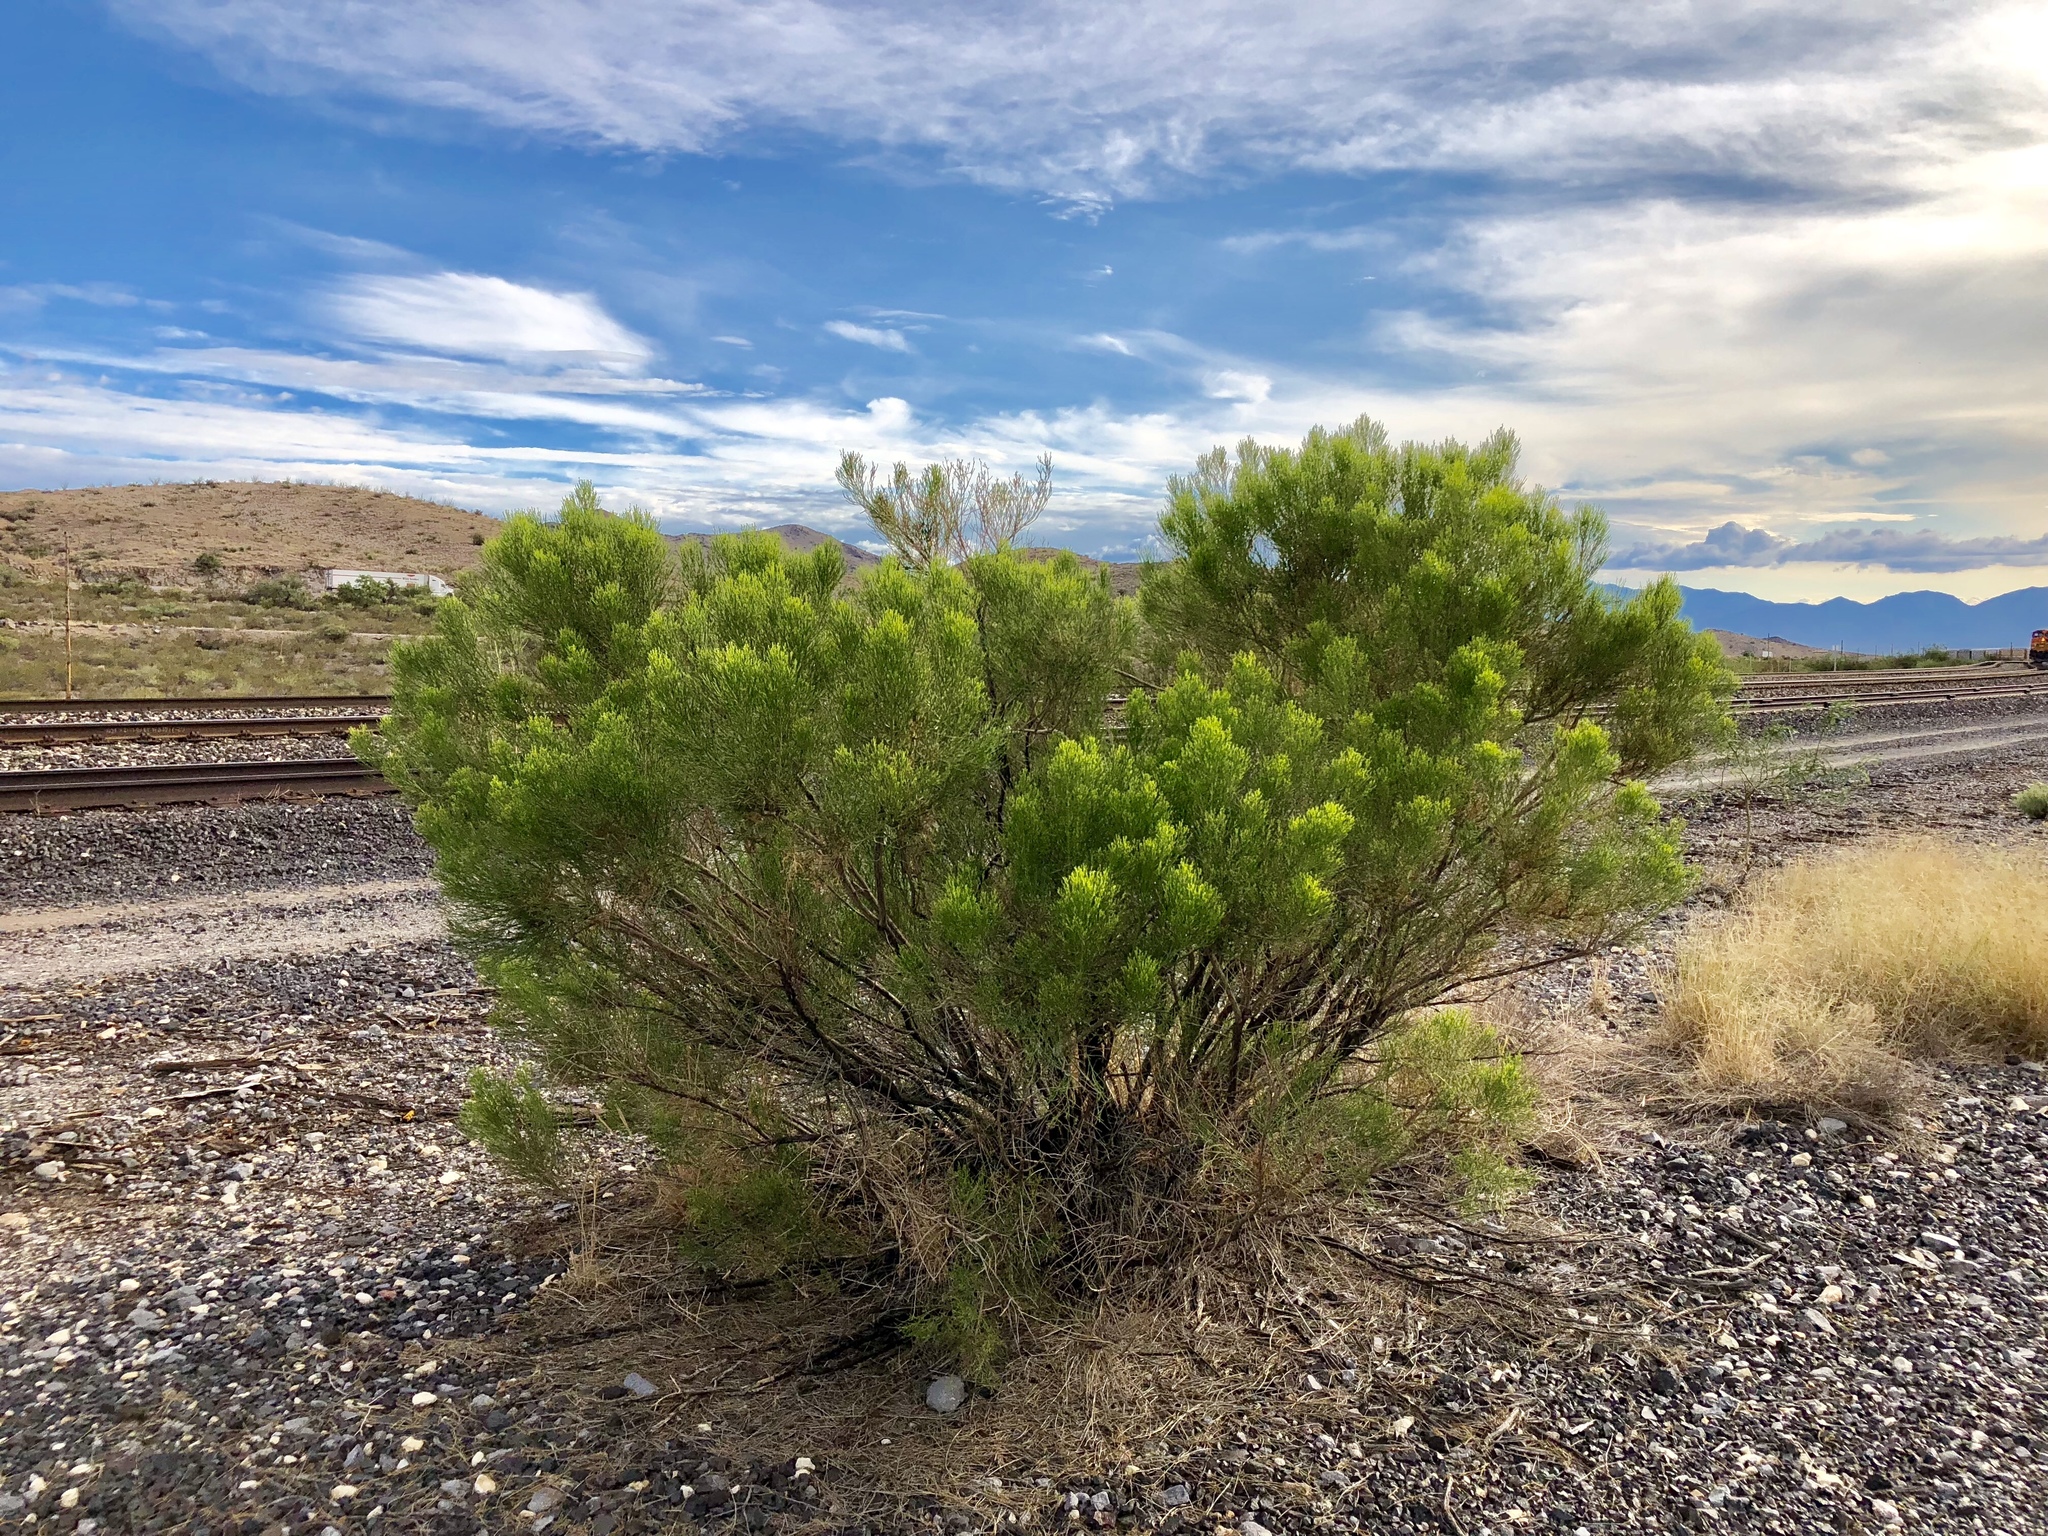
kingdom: Plantae
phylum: Tracheophyta
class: Magnoliopsida
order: Asterales
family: Asteraceae
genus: Baccharis
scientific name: Baccharis sarothroides
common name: Desert-broom
